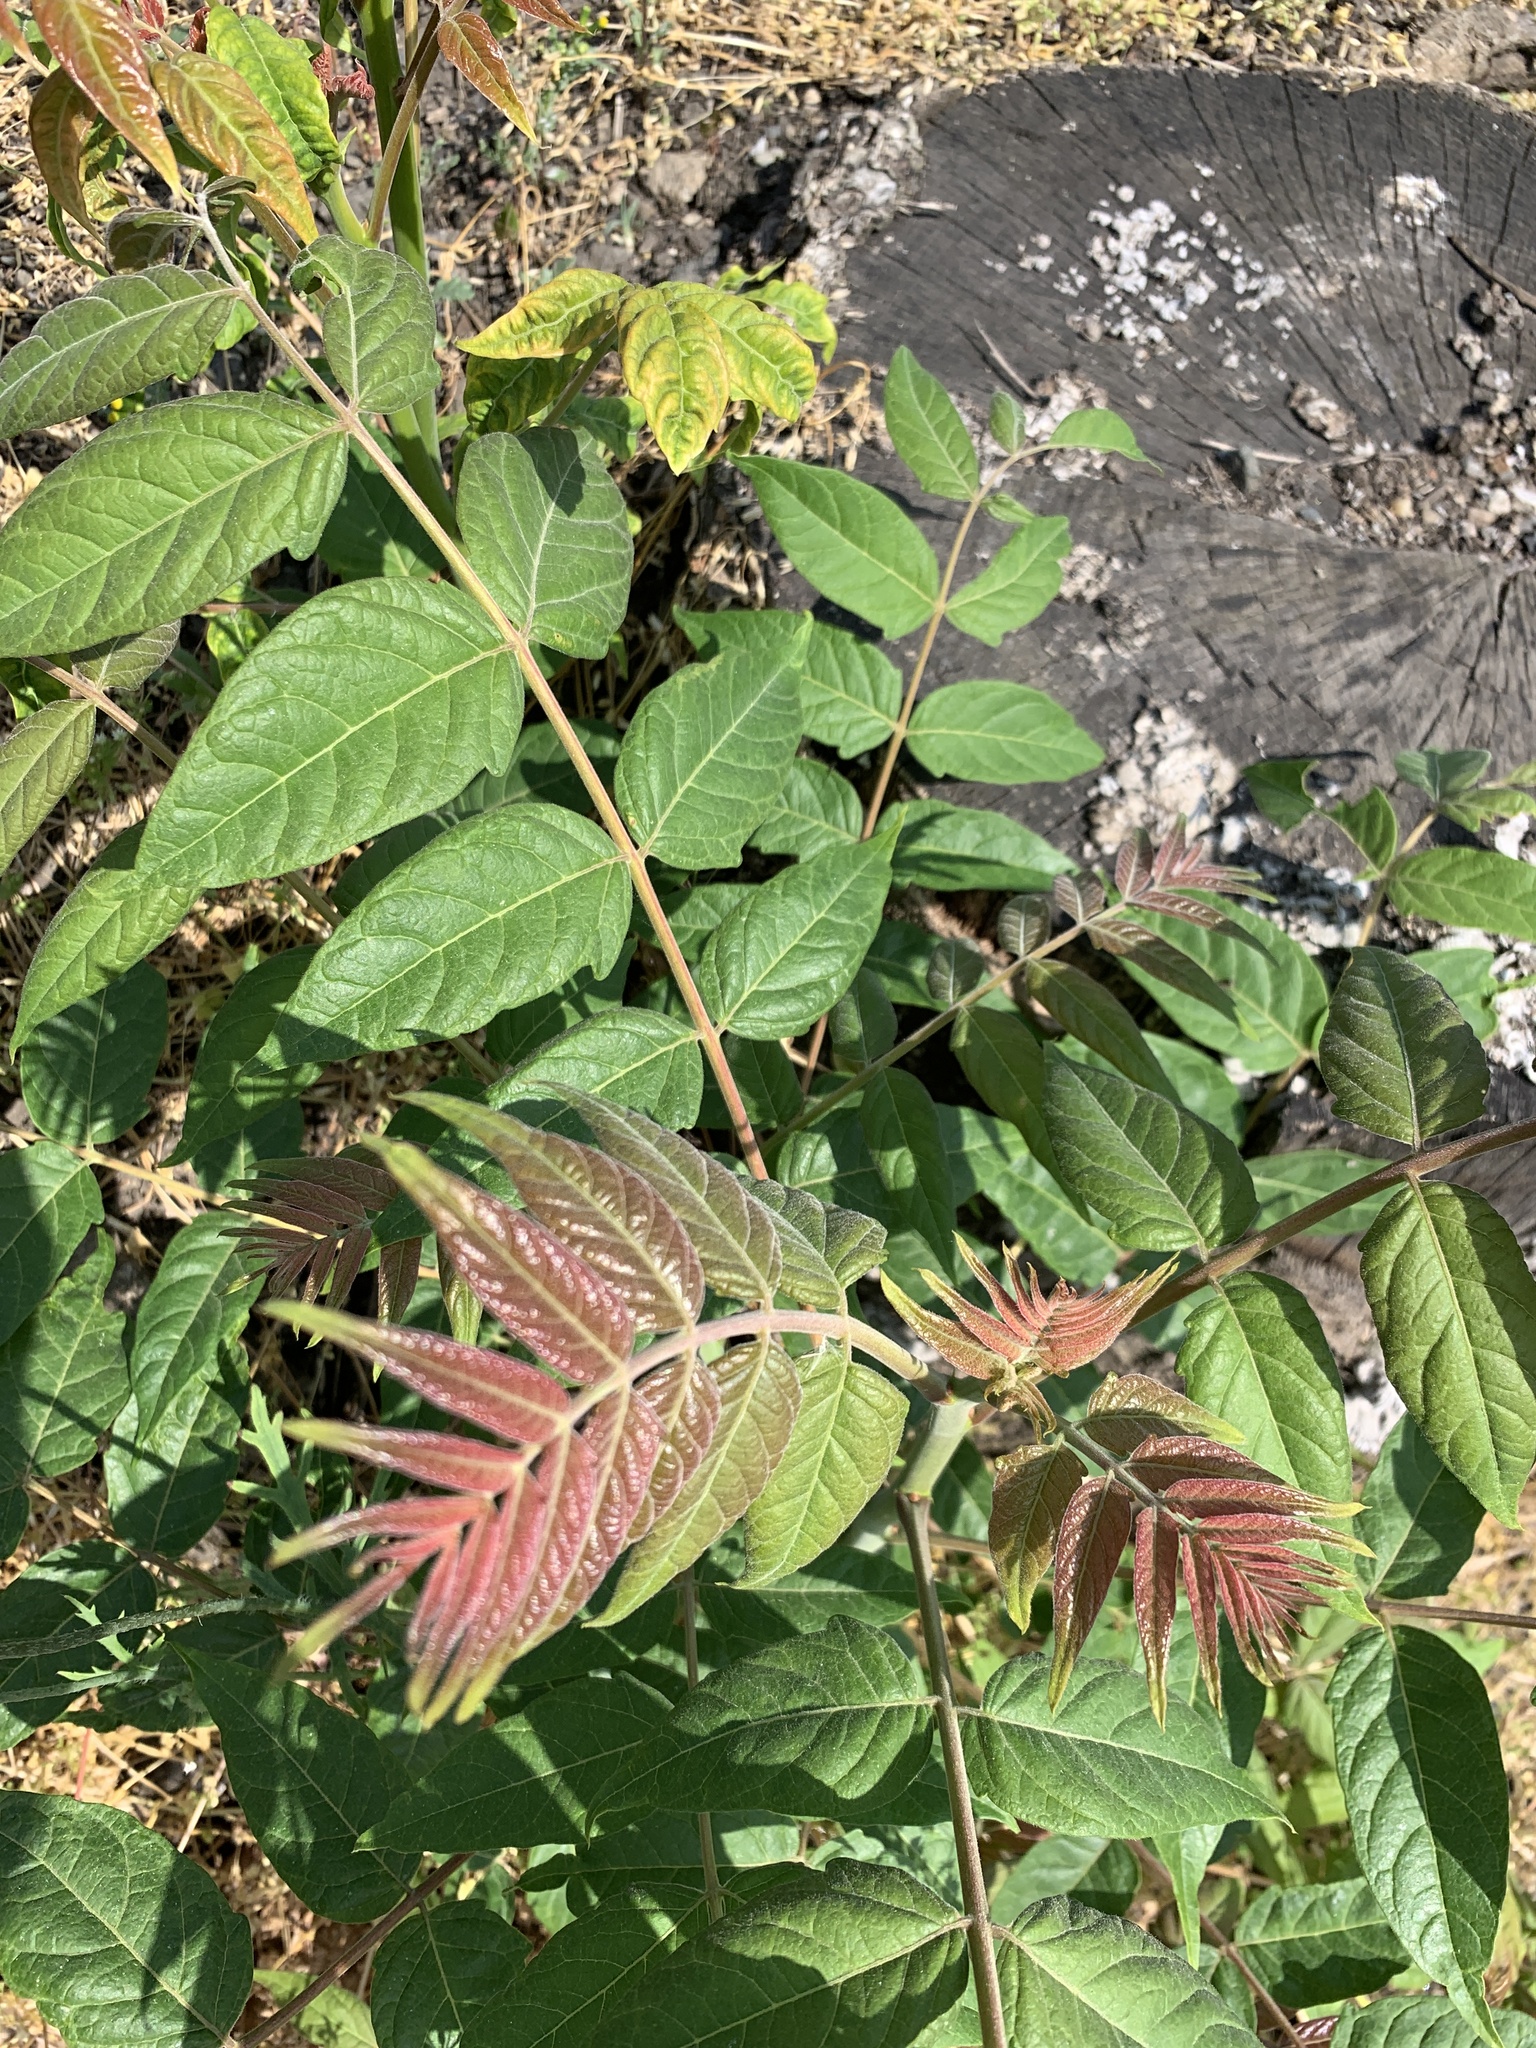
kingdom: Plantae
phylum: Tracheophyta
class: Magnoliopsida
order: Sapindales
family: Simaroubaceae
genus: Ailanthus
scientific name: Ailanthus altissima
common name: Tree-of-heaven
